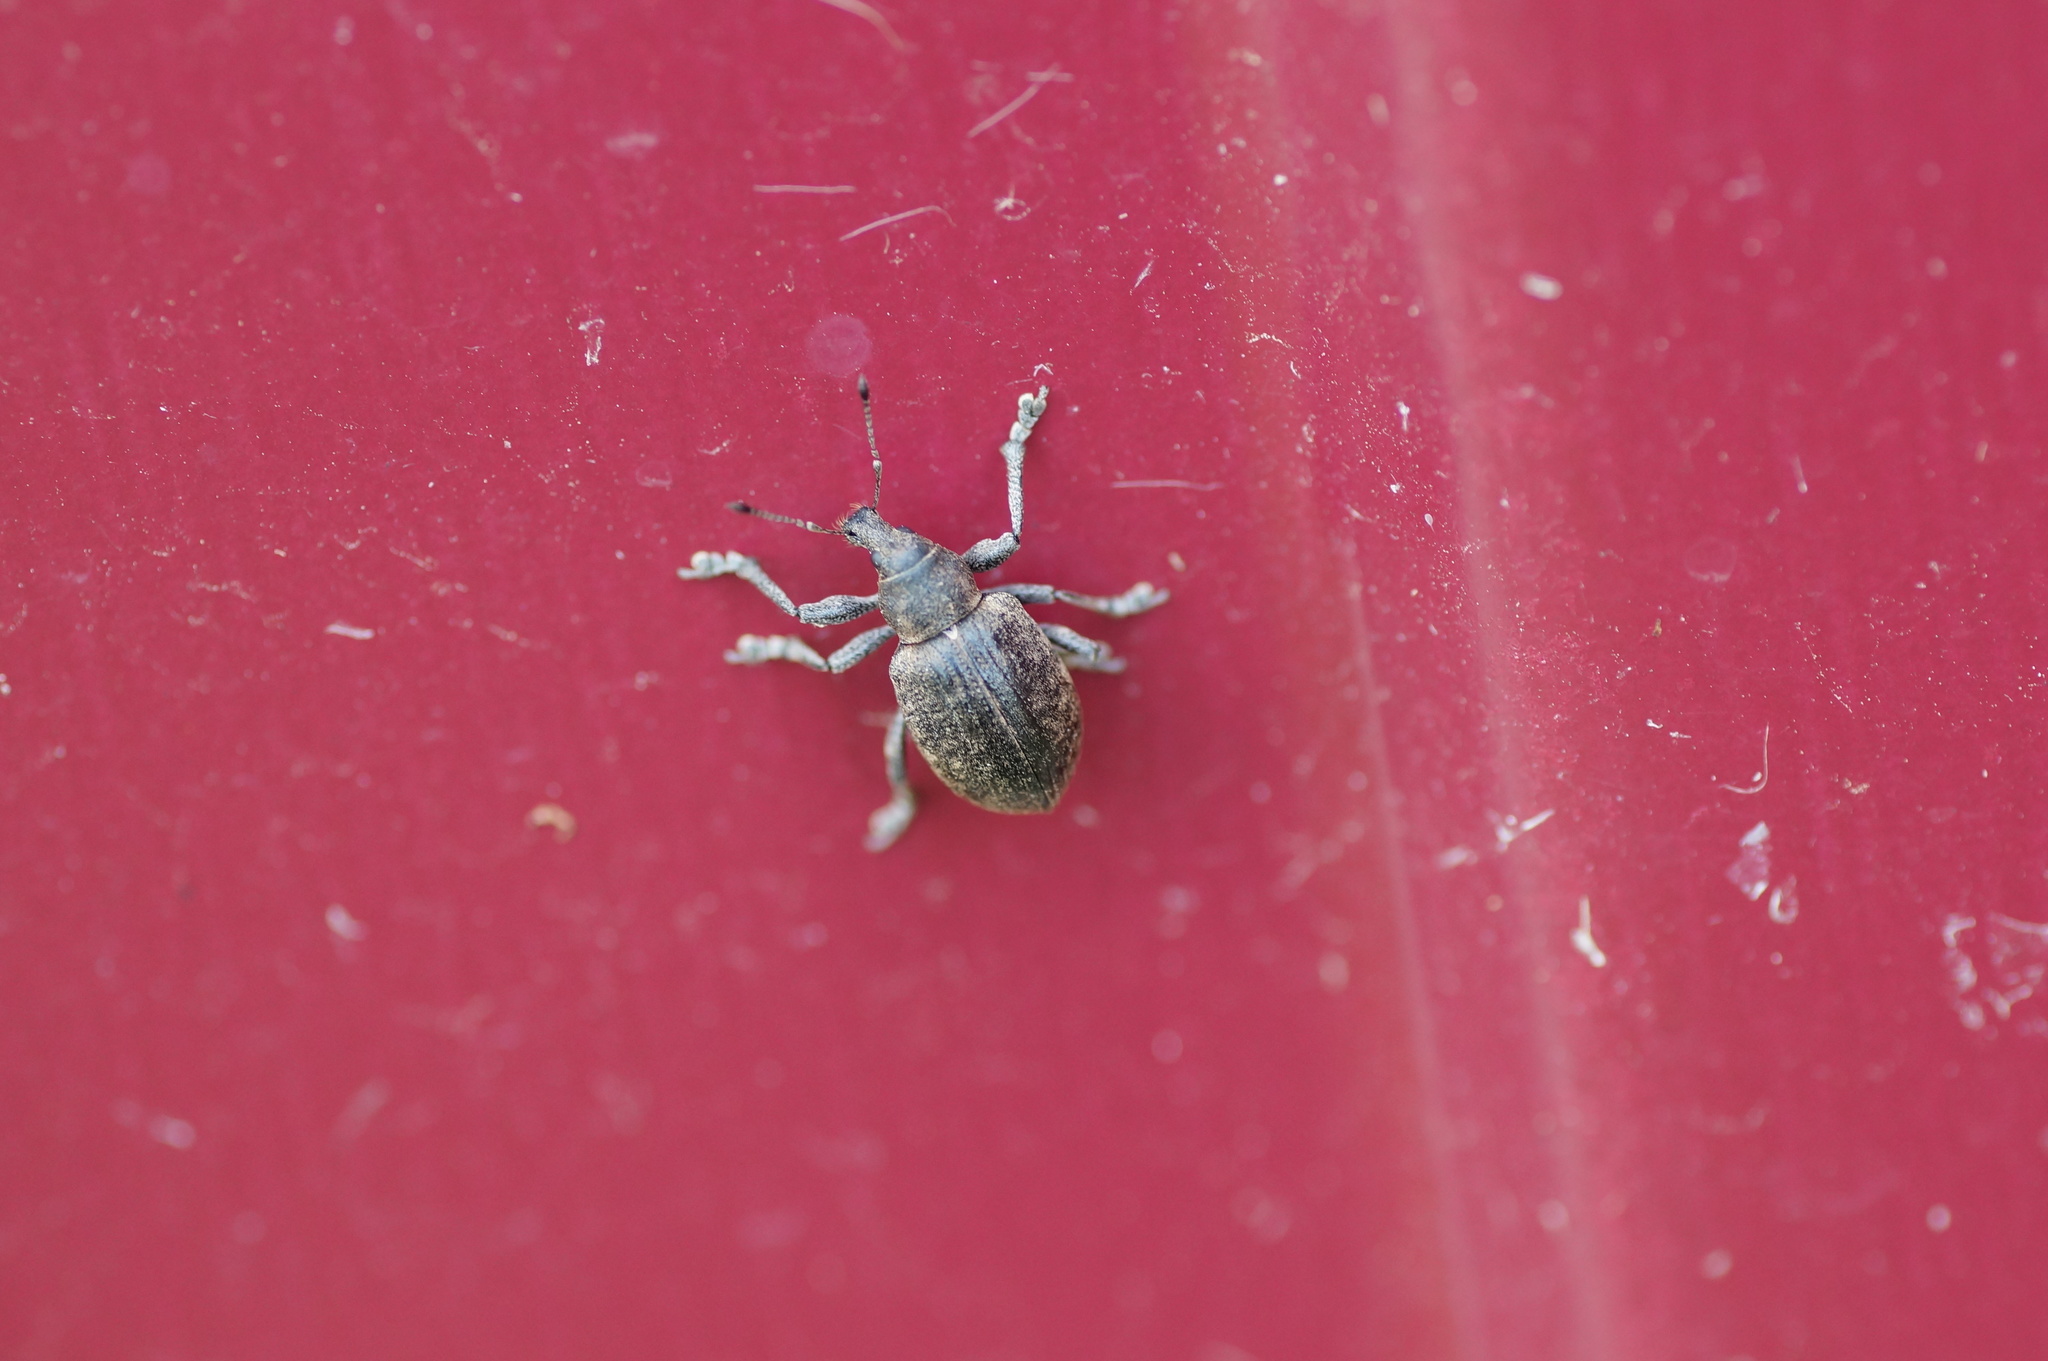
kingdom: Animalia
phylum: Arthropoda
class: Insecta
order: Coleoptera
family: Curculionidae
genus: Liophloeus
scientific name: Liophloeus tessulatus
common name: Weevil
